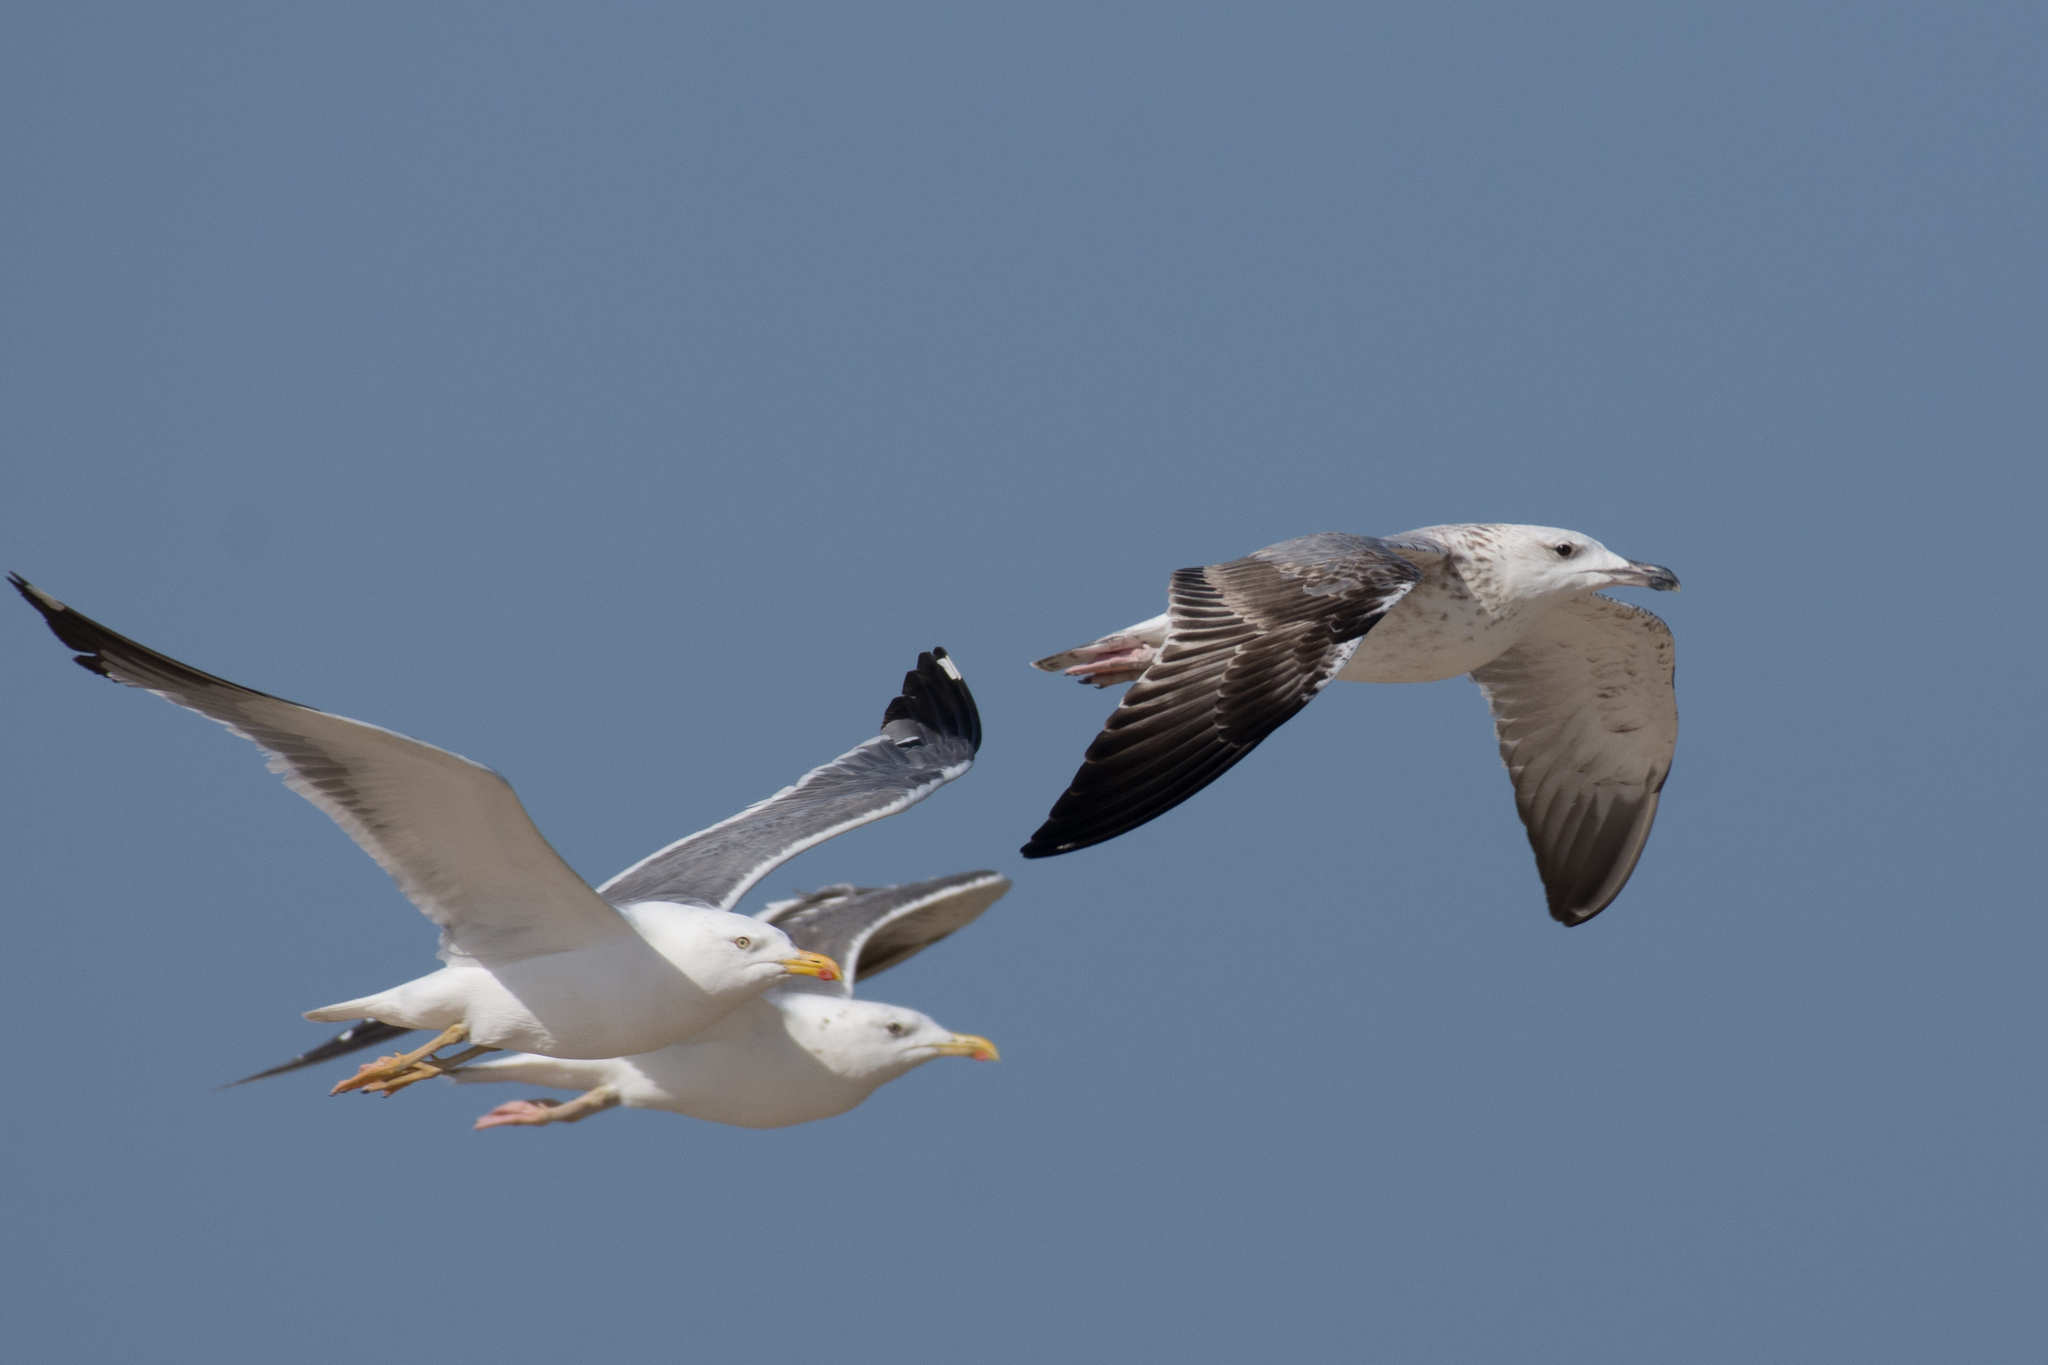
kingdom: Animalia
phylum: Chordata
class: Aves
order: Charadriiformes
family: Laridae
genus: Larus
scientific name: Larus fuscus
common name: Lesser black-backed gull
